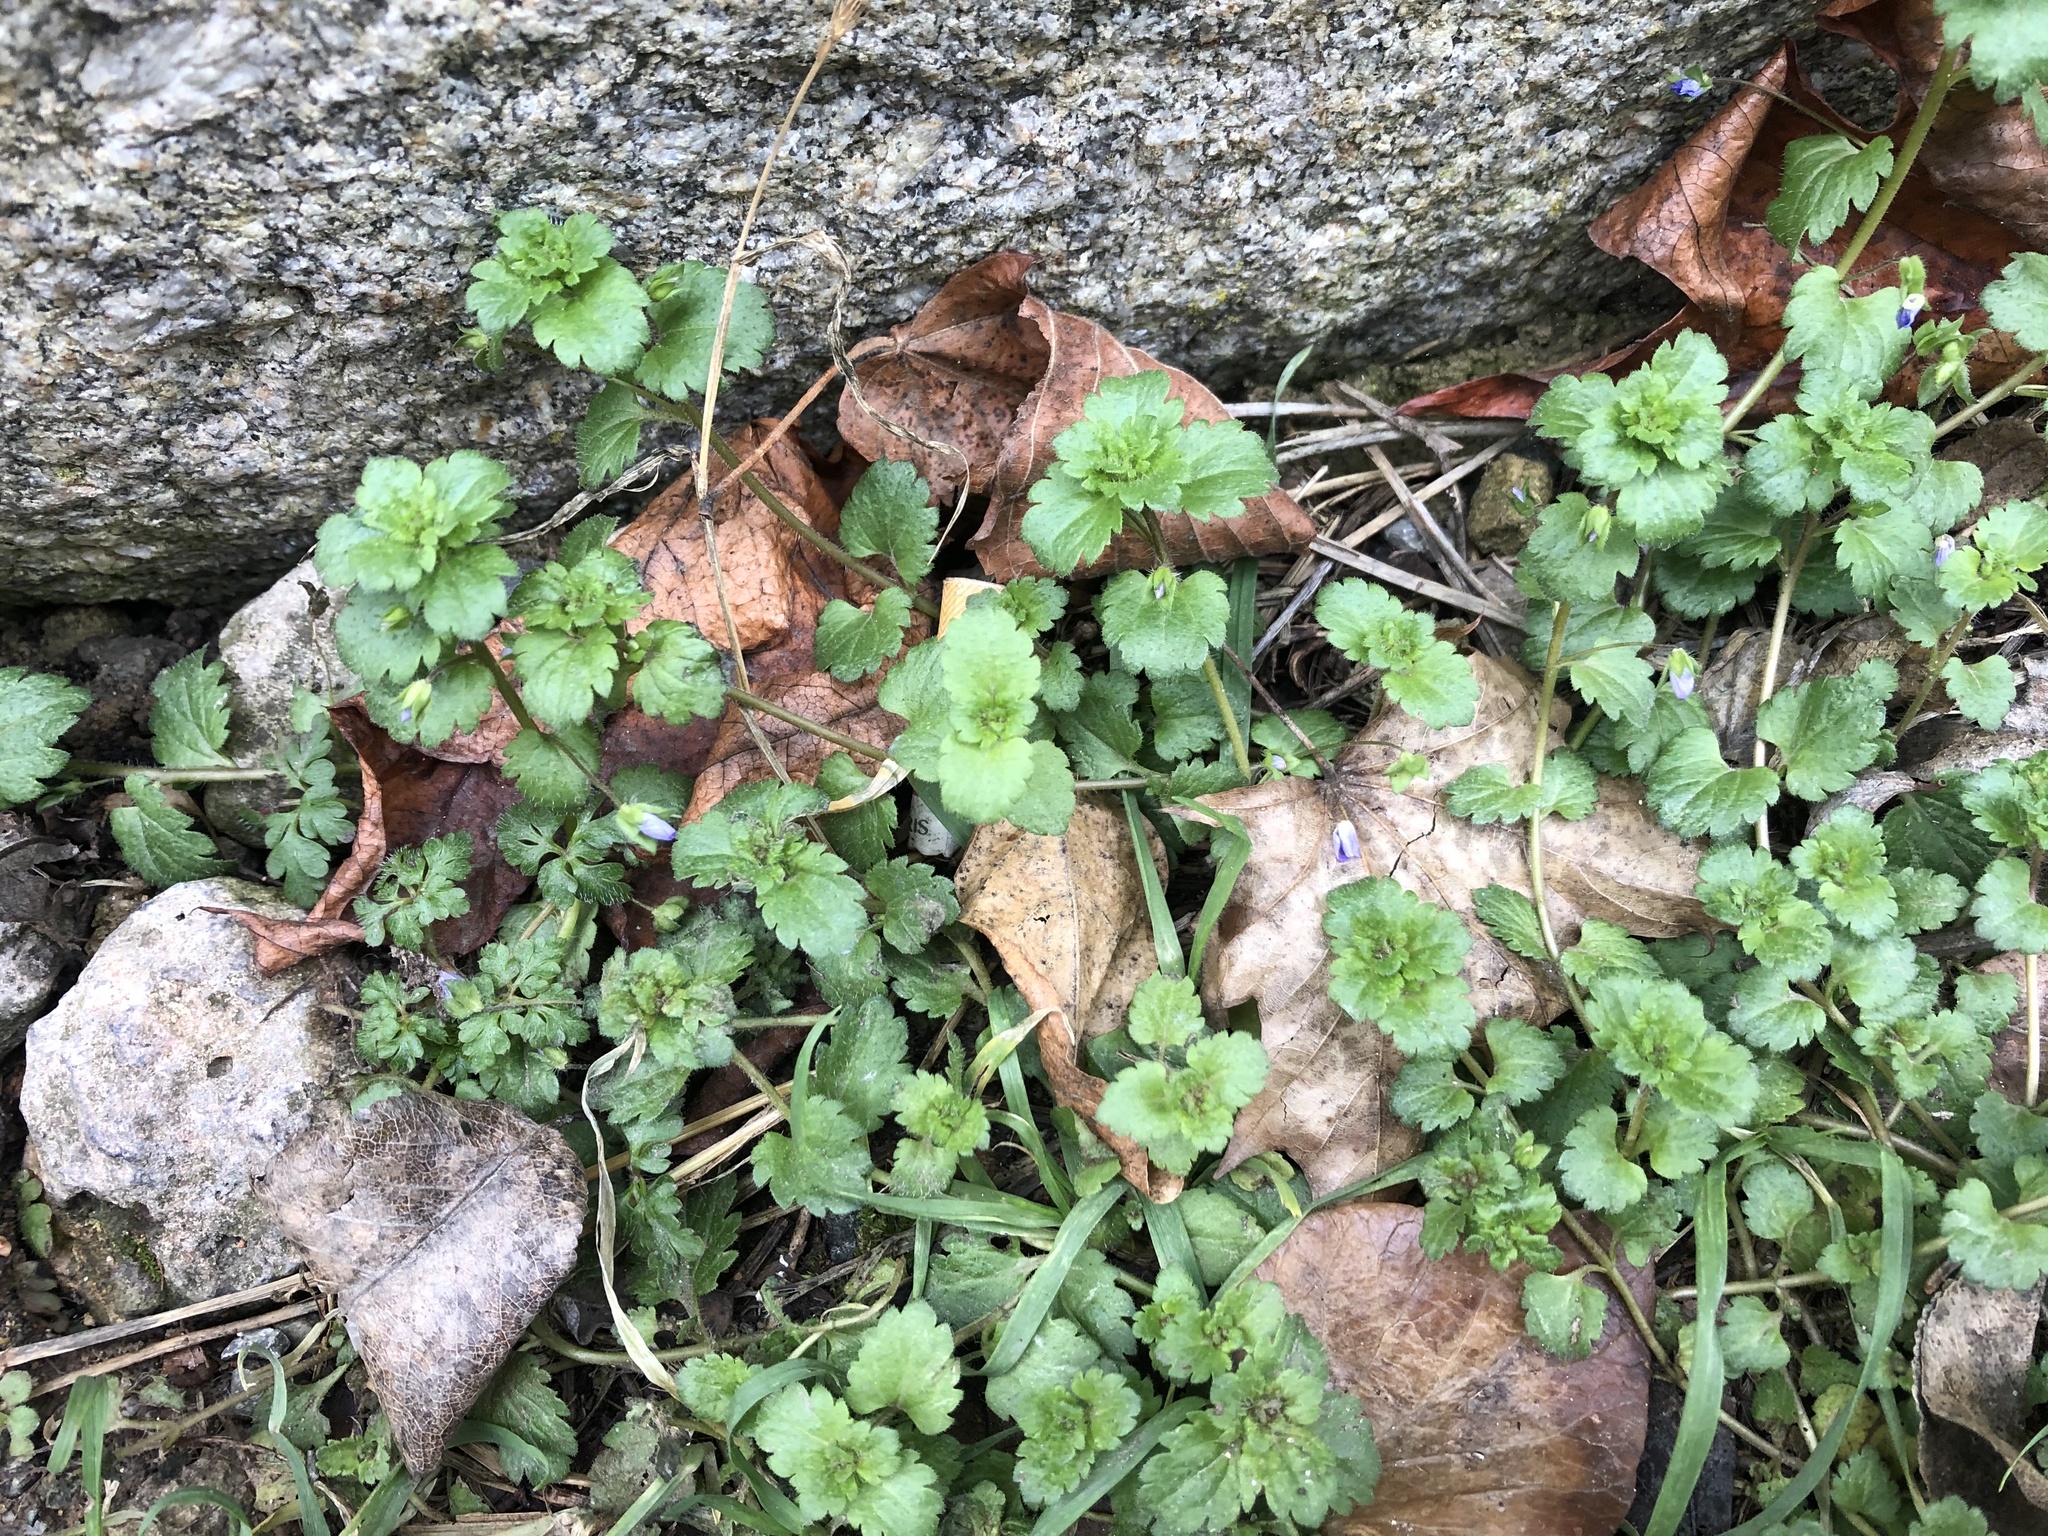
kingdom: Plantae
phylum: Tracheophyta
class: Magnoliopsida
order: Lamiales
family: Plantaginaceae
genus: Veronica
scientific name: Veronica persica
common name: Common field-speedwell
